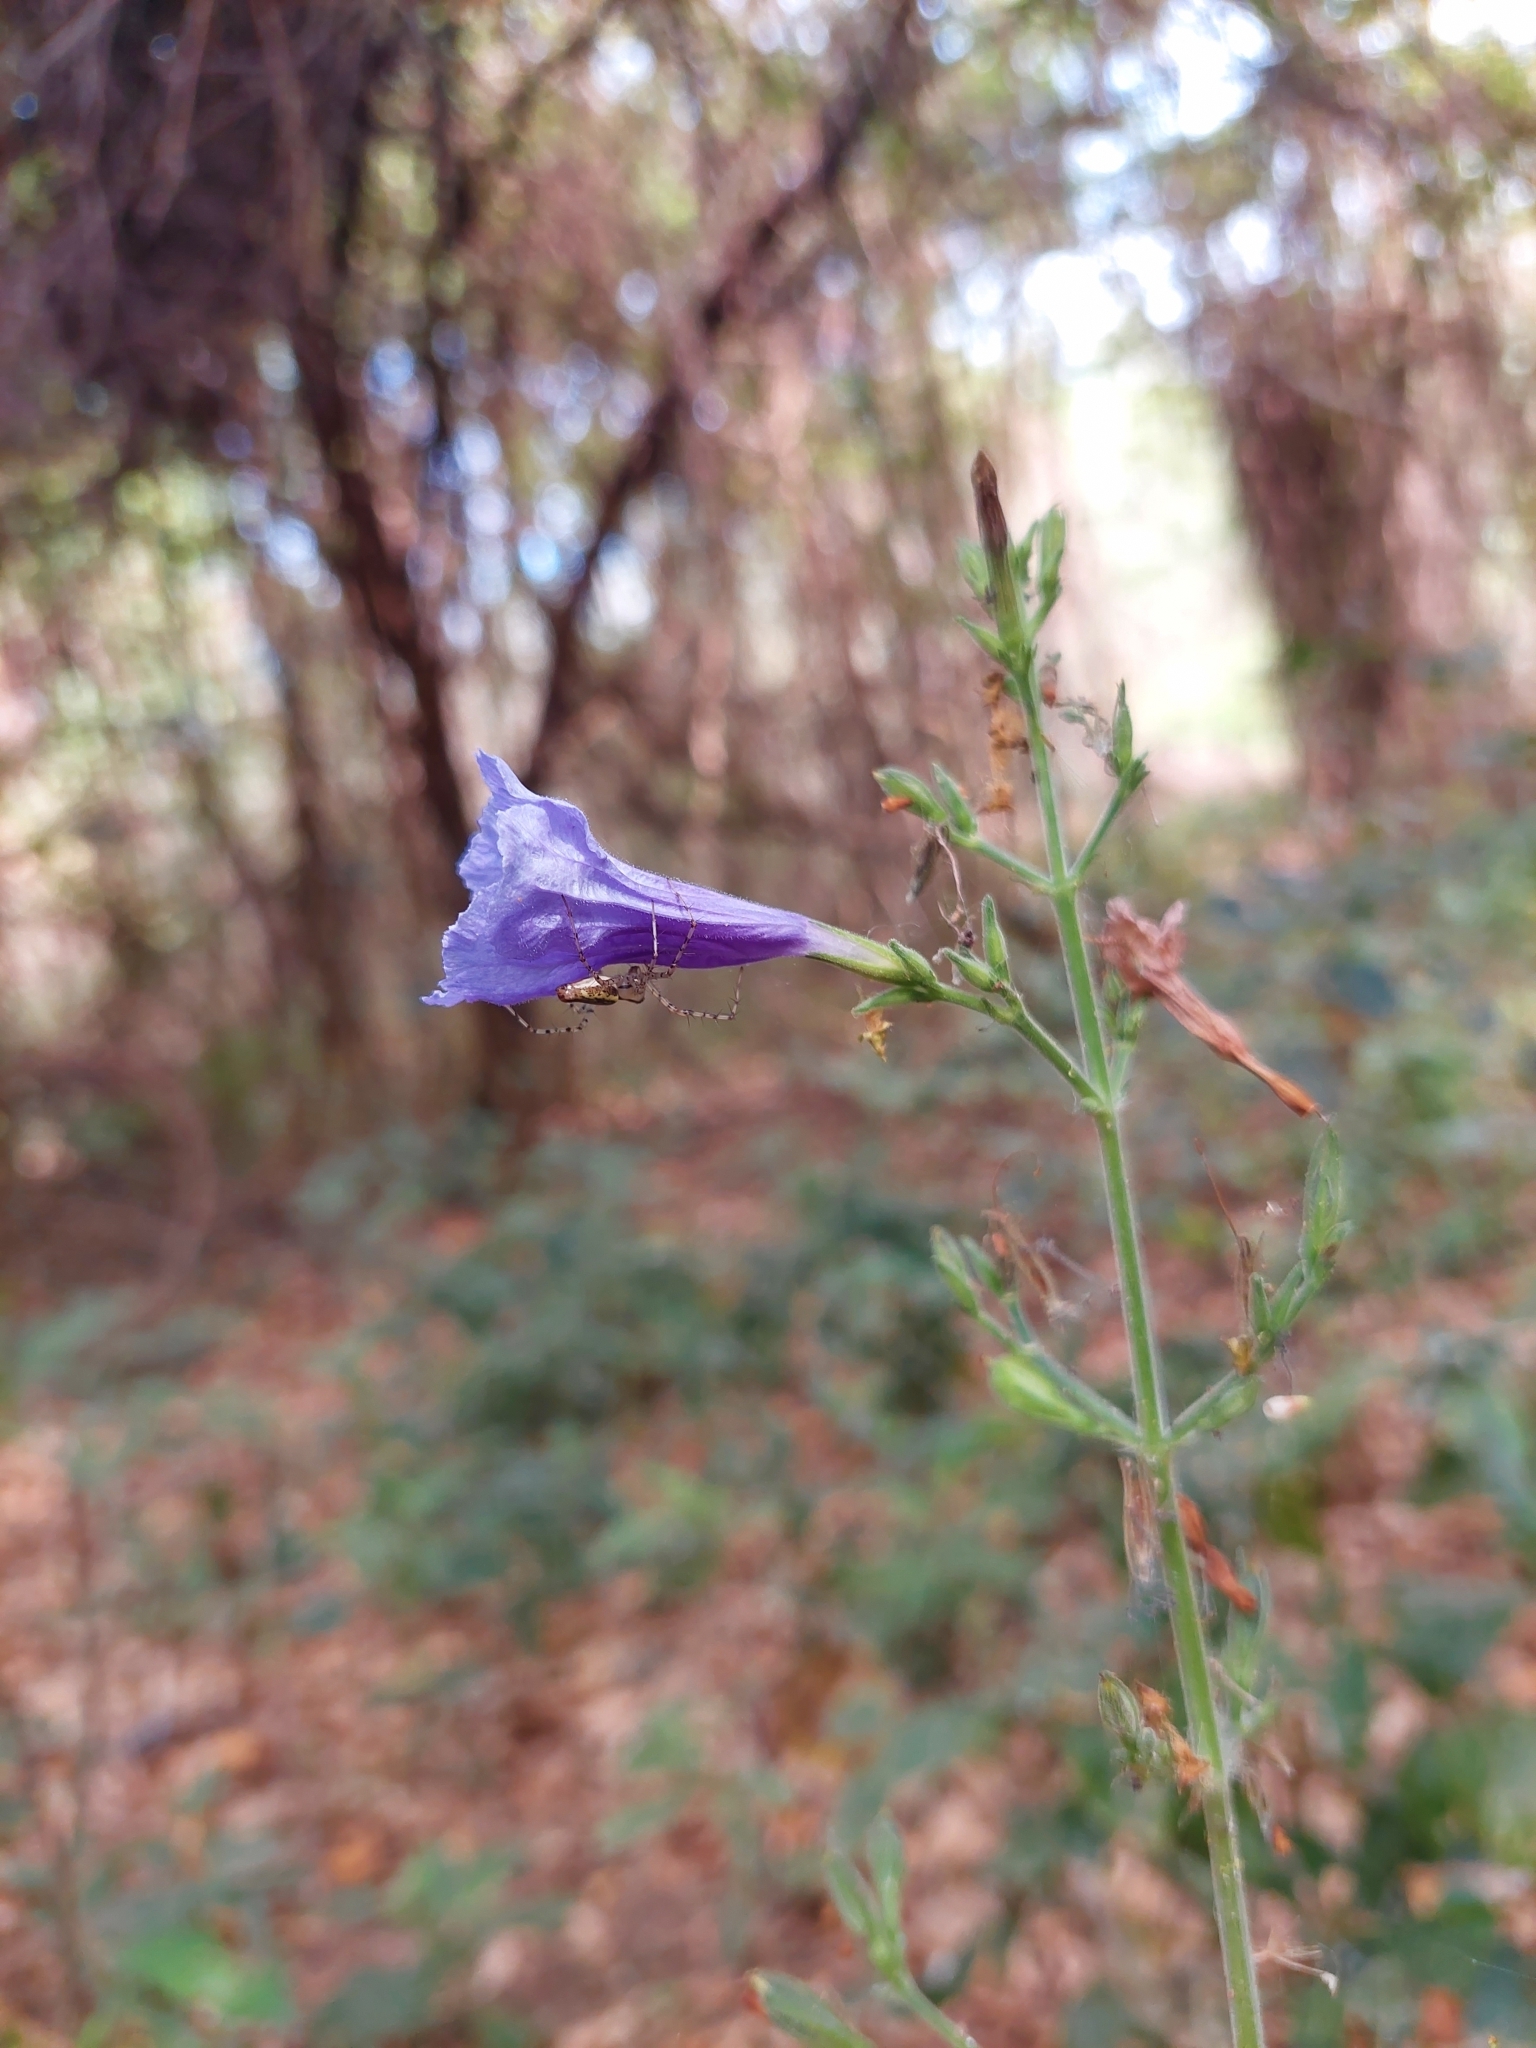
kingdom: Plantae
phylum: Tracheophyta
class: Magnoliopsida
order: Lamiales
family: Acanthaceae
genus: Ruellia
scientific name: Ruellia ciliatiflora
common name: Hairyflower wild petunia
